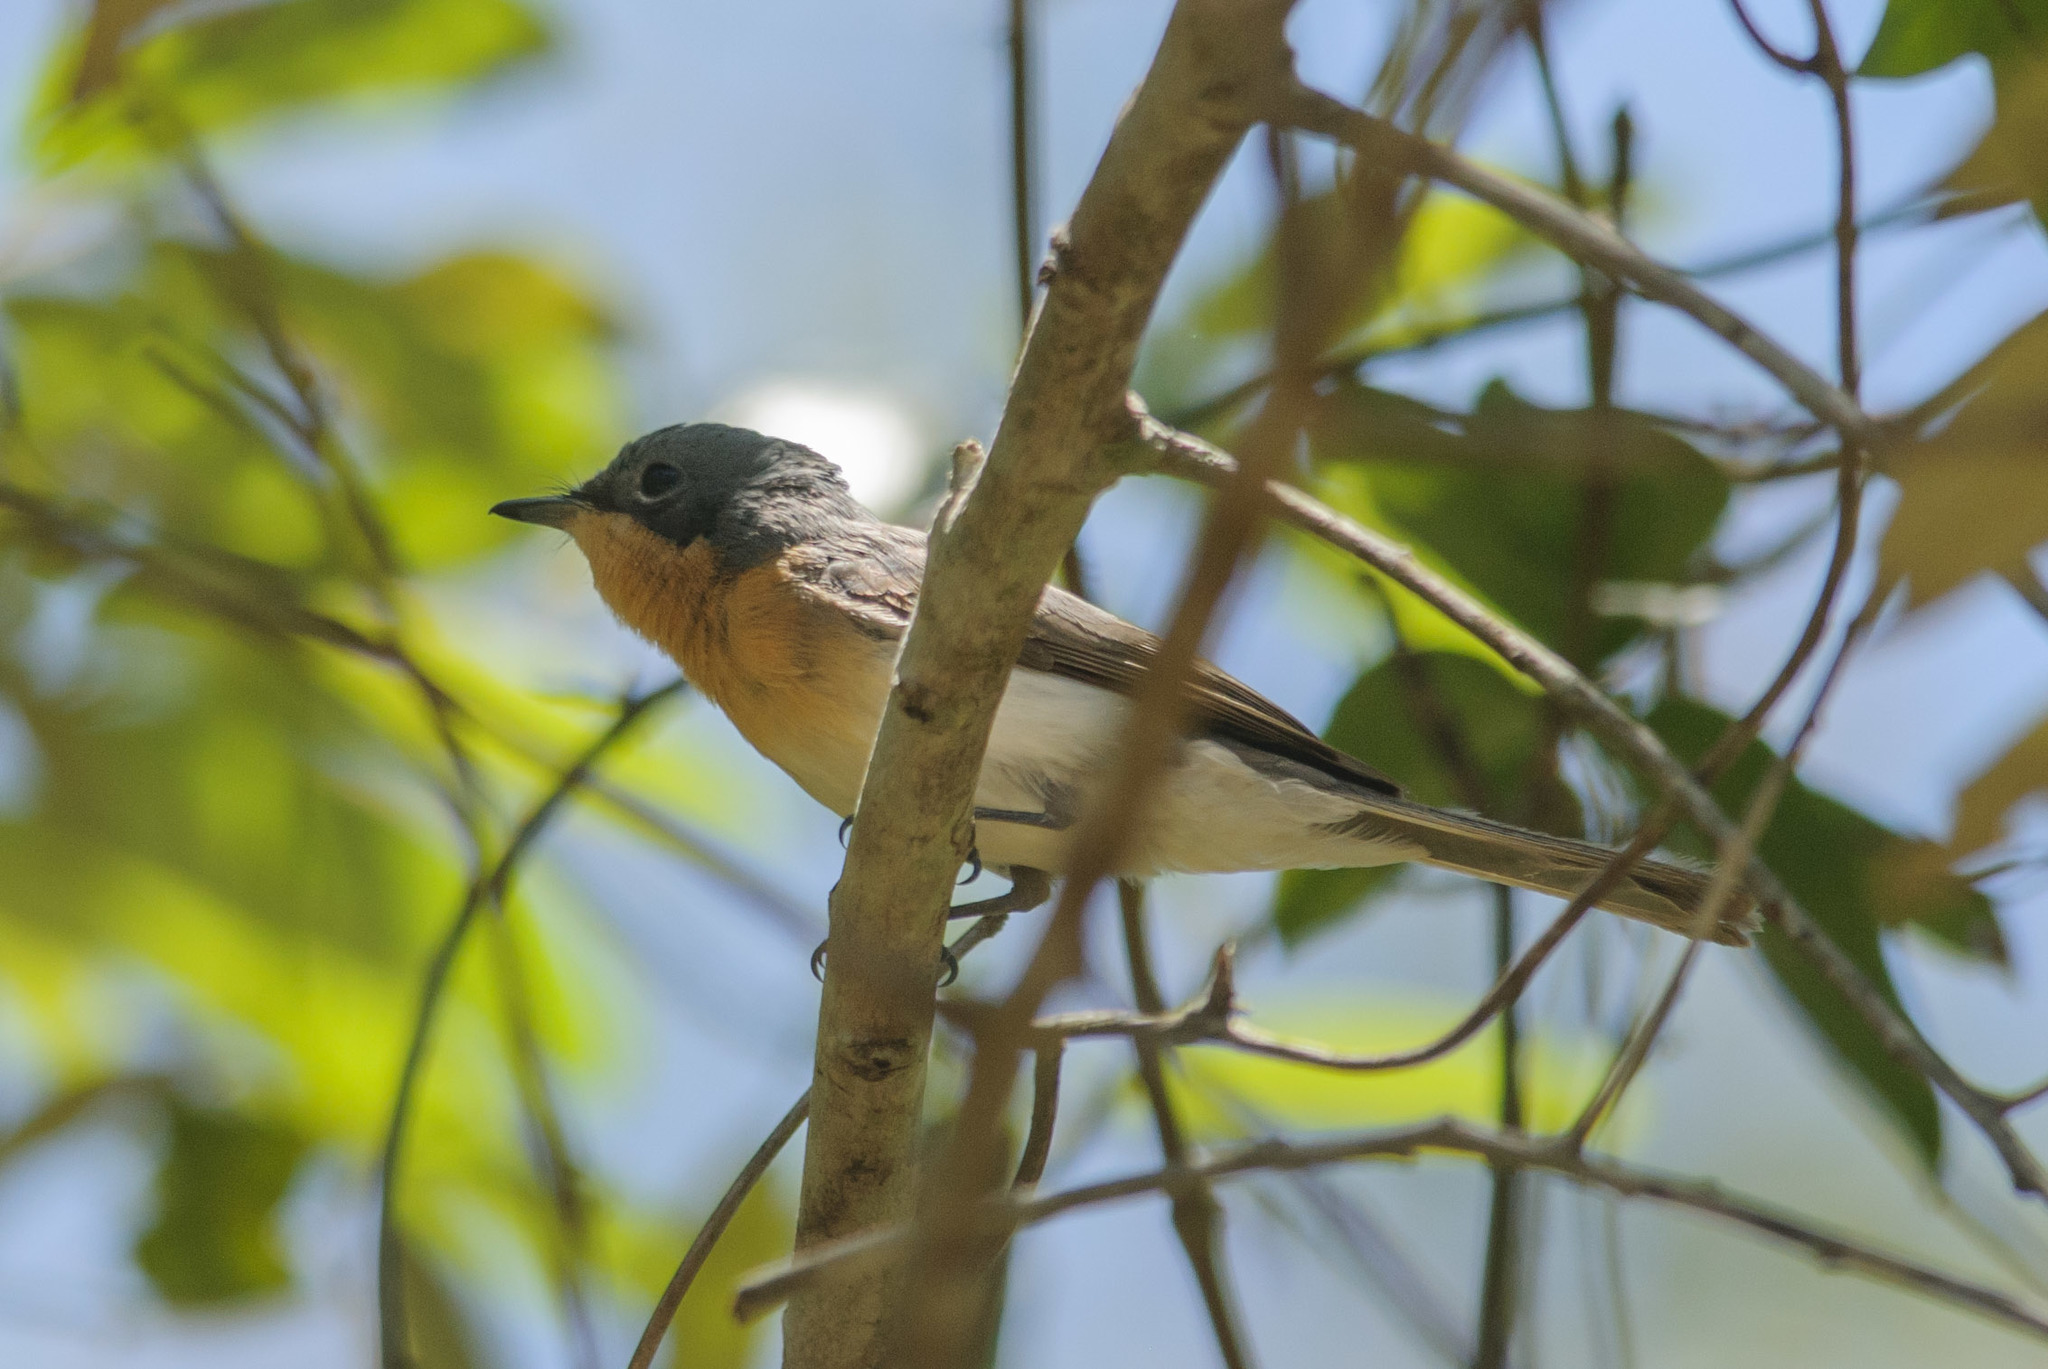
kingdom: Animalia
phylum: Chordata
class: Aves
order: Passeriformes
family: Monarchidae
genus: Myiagra
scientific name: Myiagra rubecula
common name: Leaden flycatcher
